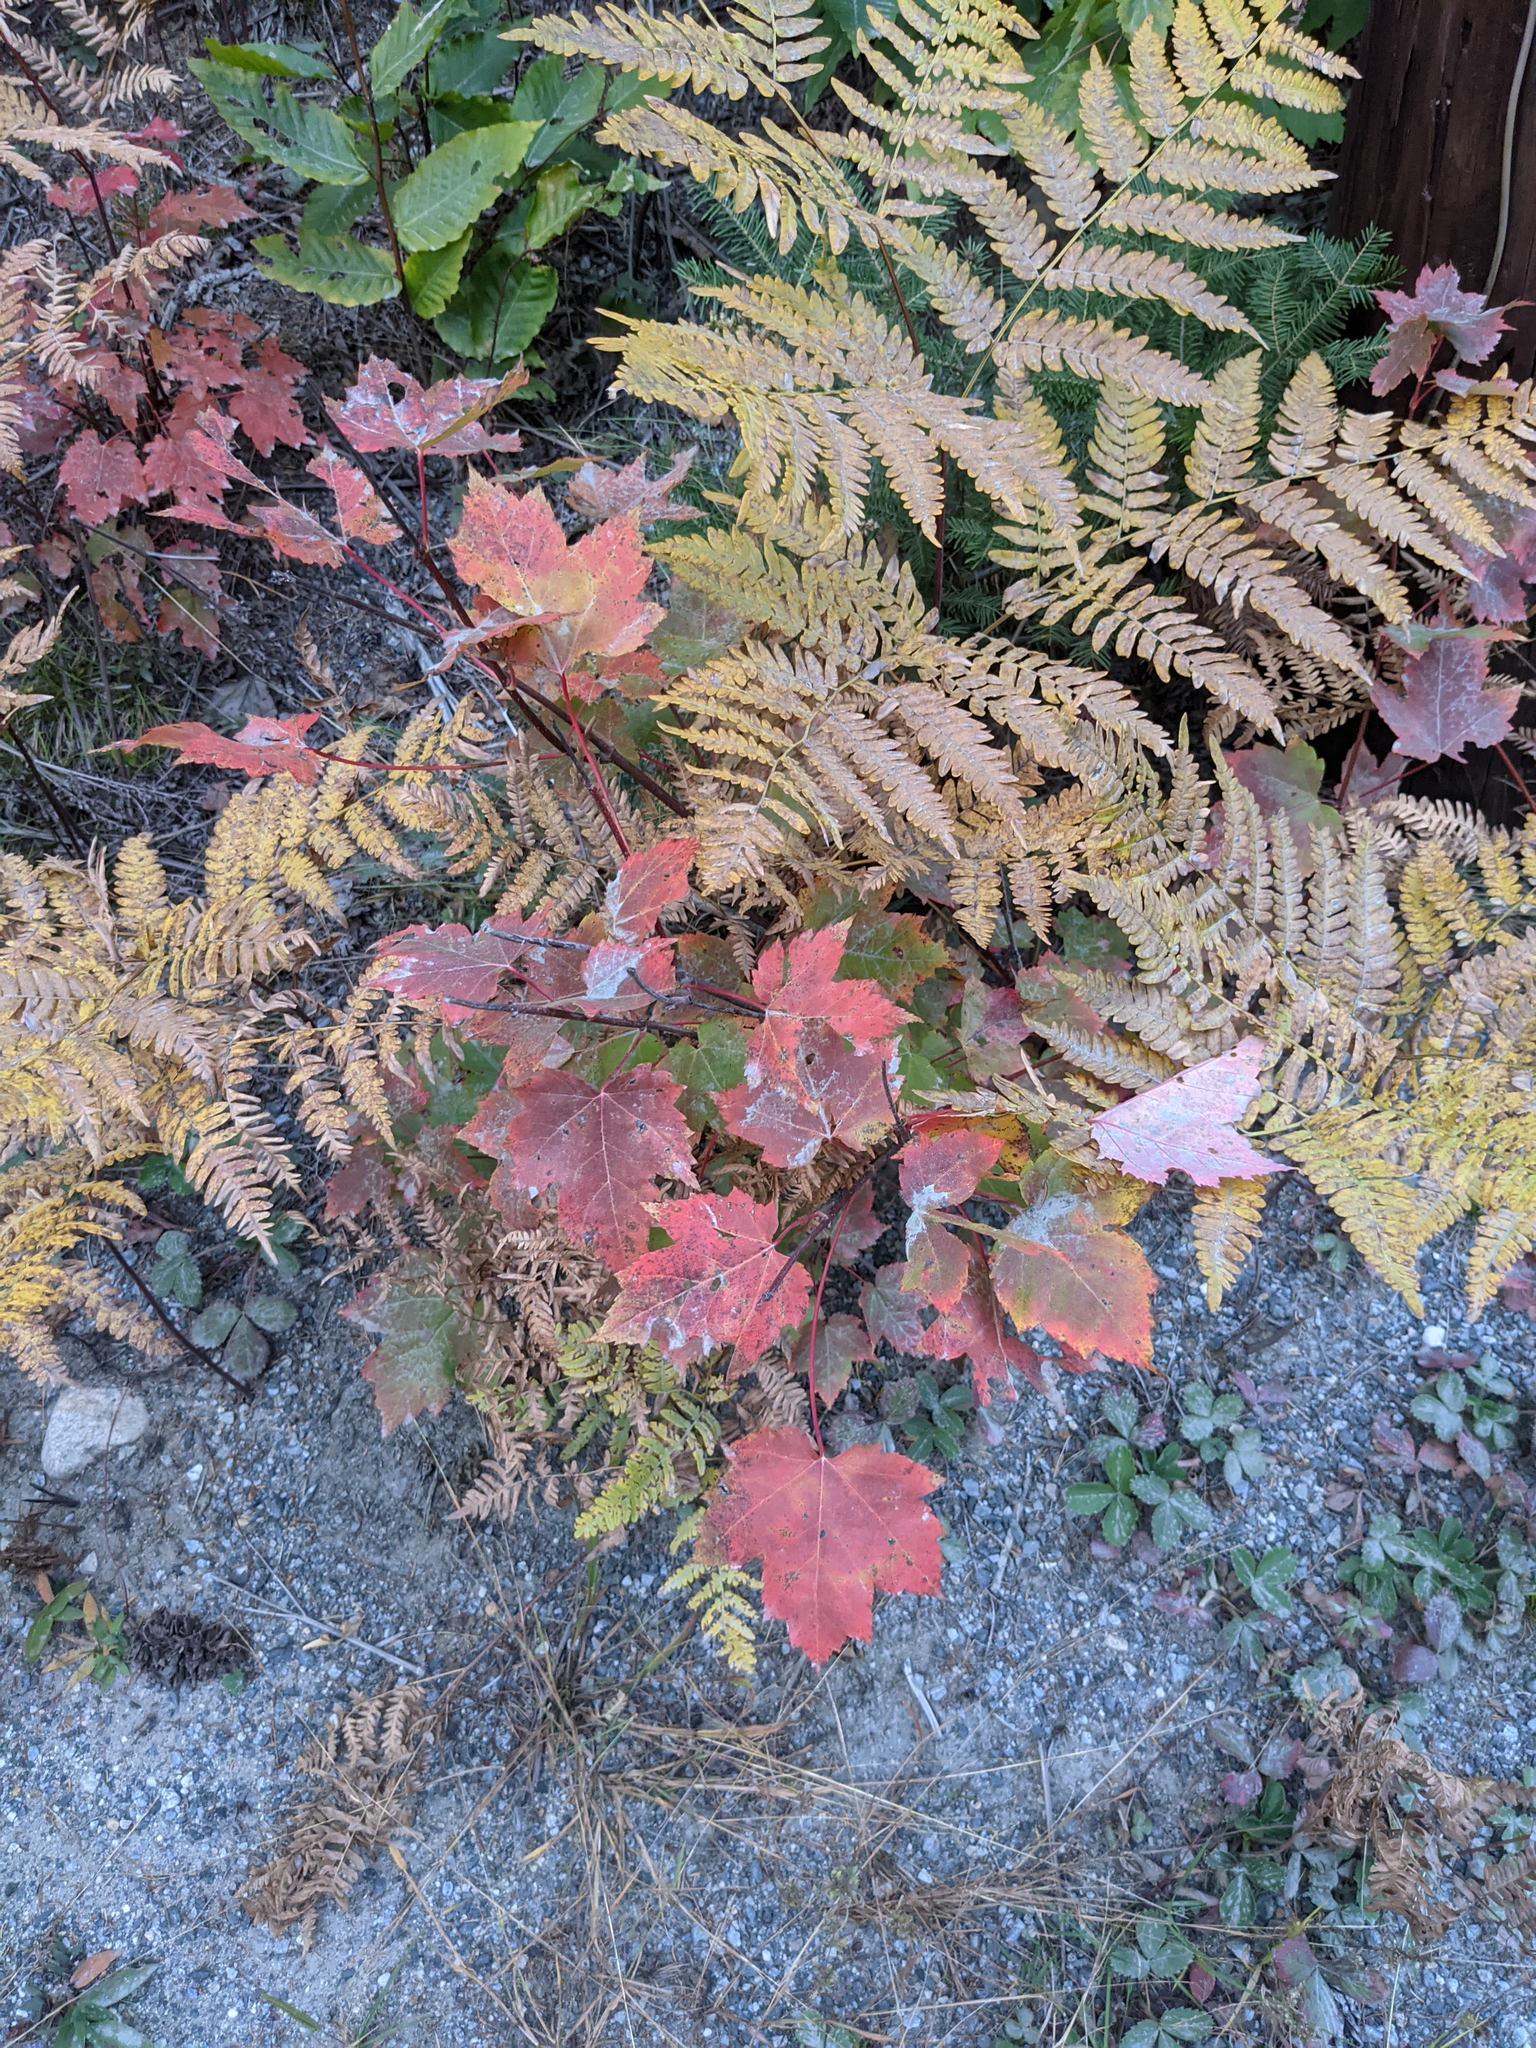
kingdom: Plantae
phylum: Tracheophyta
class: Magnoliopsida
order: Sapindales
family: Sapindaceae
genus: Acer
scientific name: Acer rubrum
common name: Red maple
